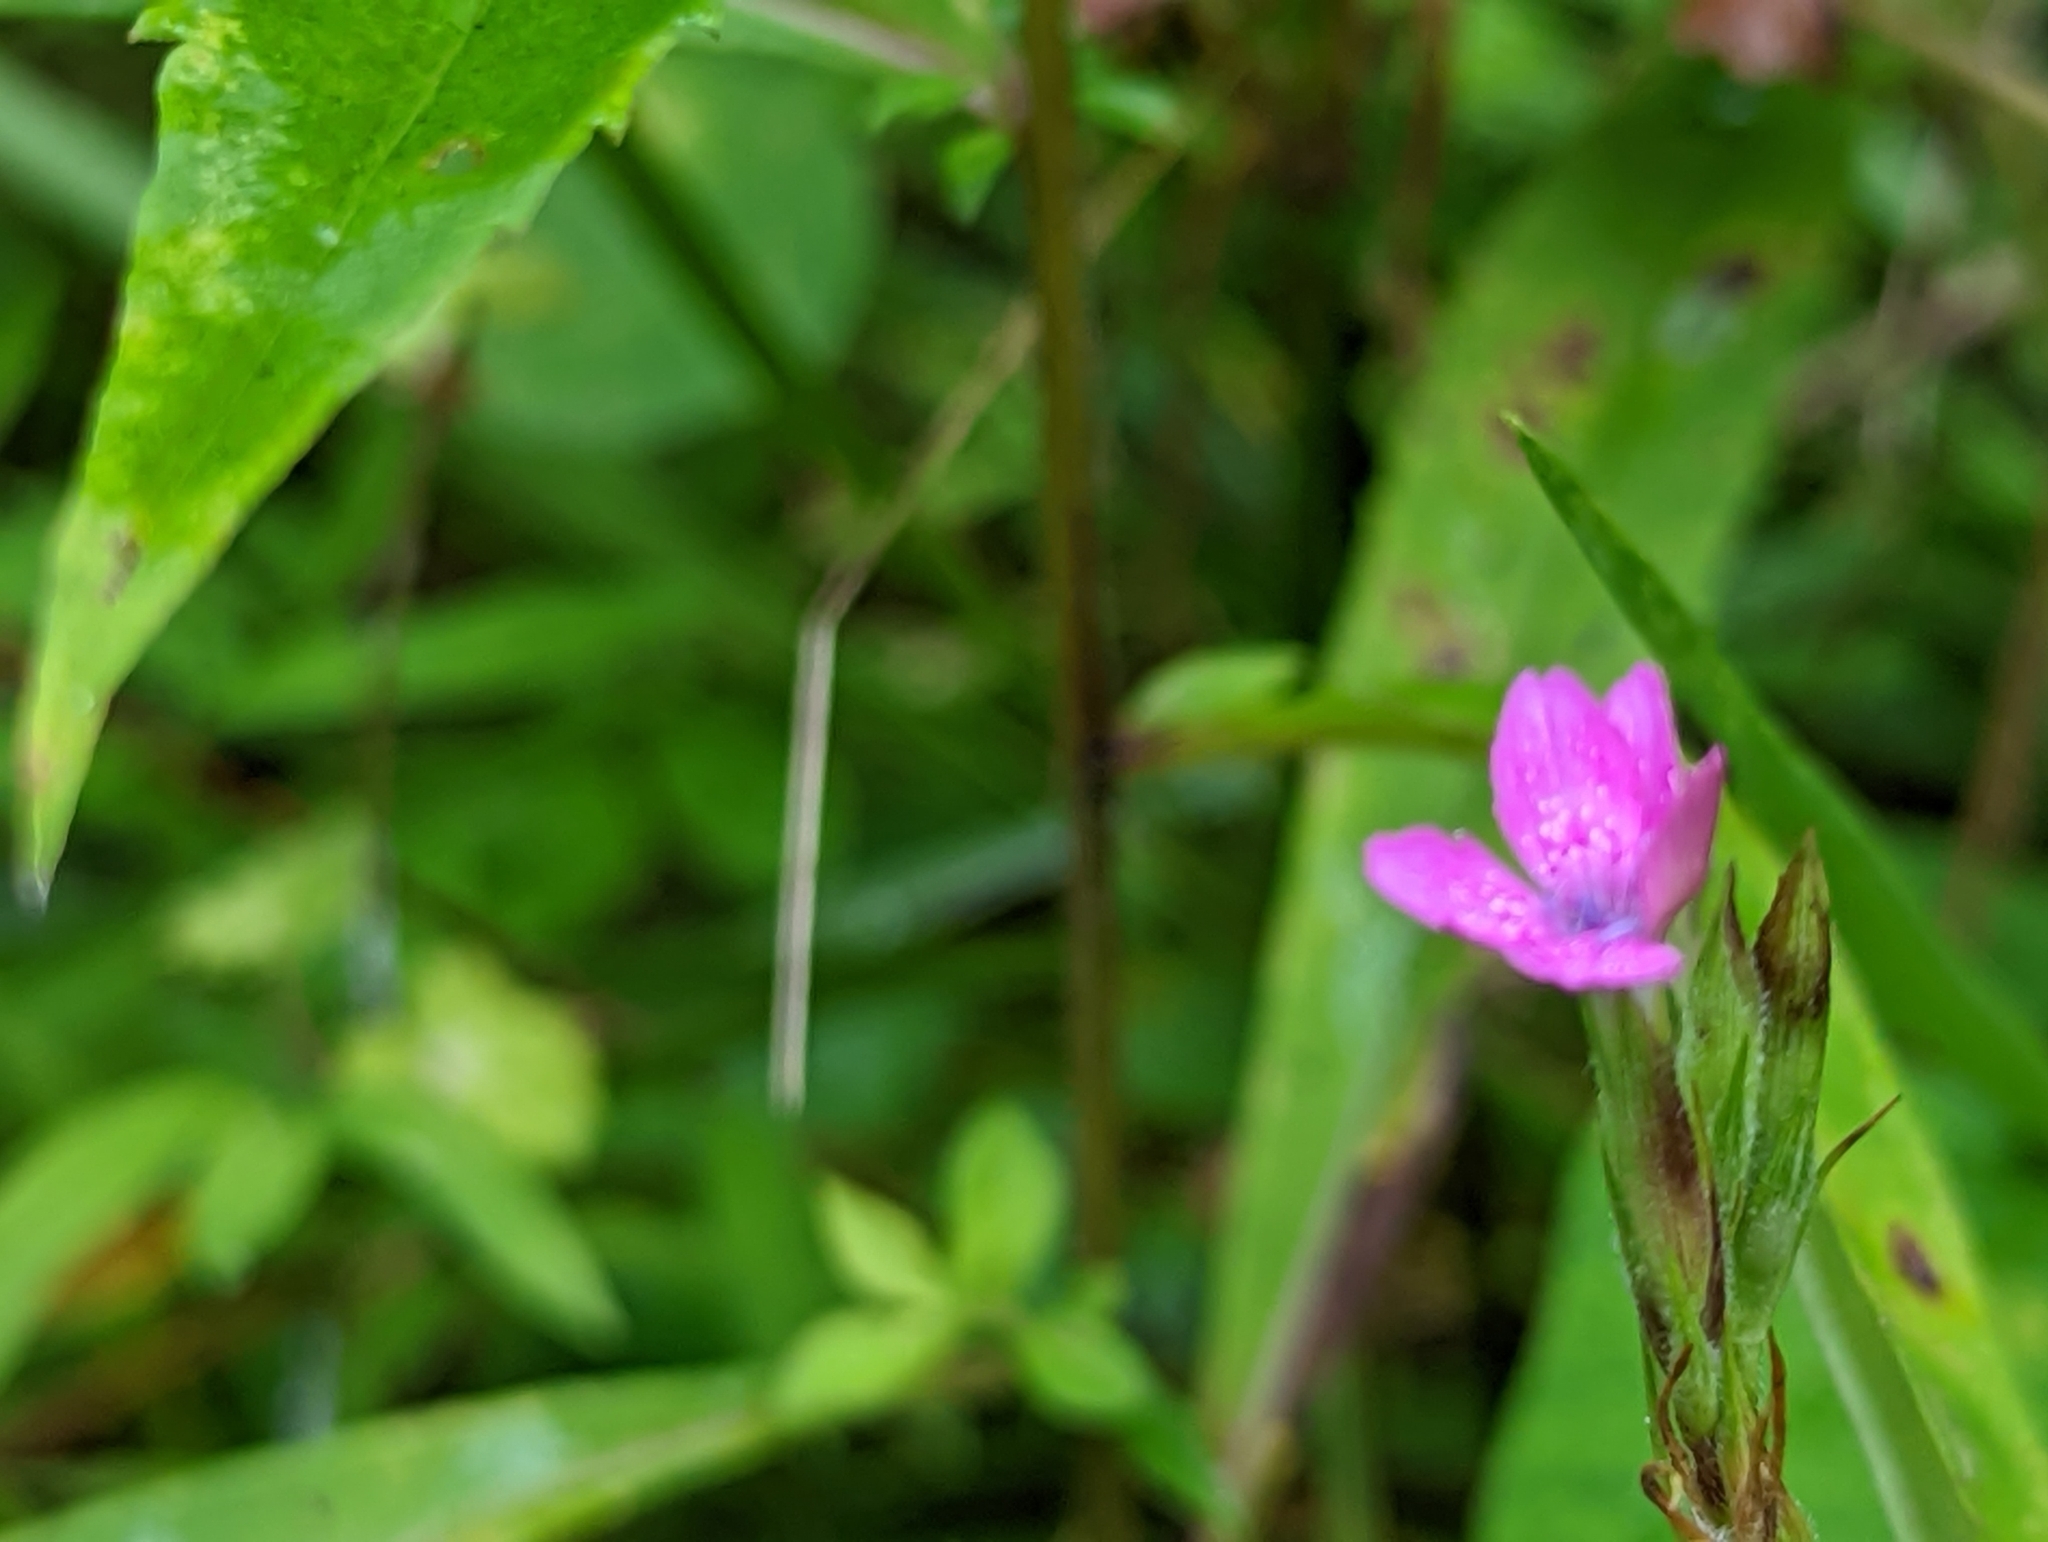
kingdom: Plantae
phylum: Tracheophyta
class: Magnoliopsida
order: Caryophyllales
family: Caryophyllaceae
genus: Dianthus
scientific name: Dianthus armeria
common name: Deptford pink
